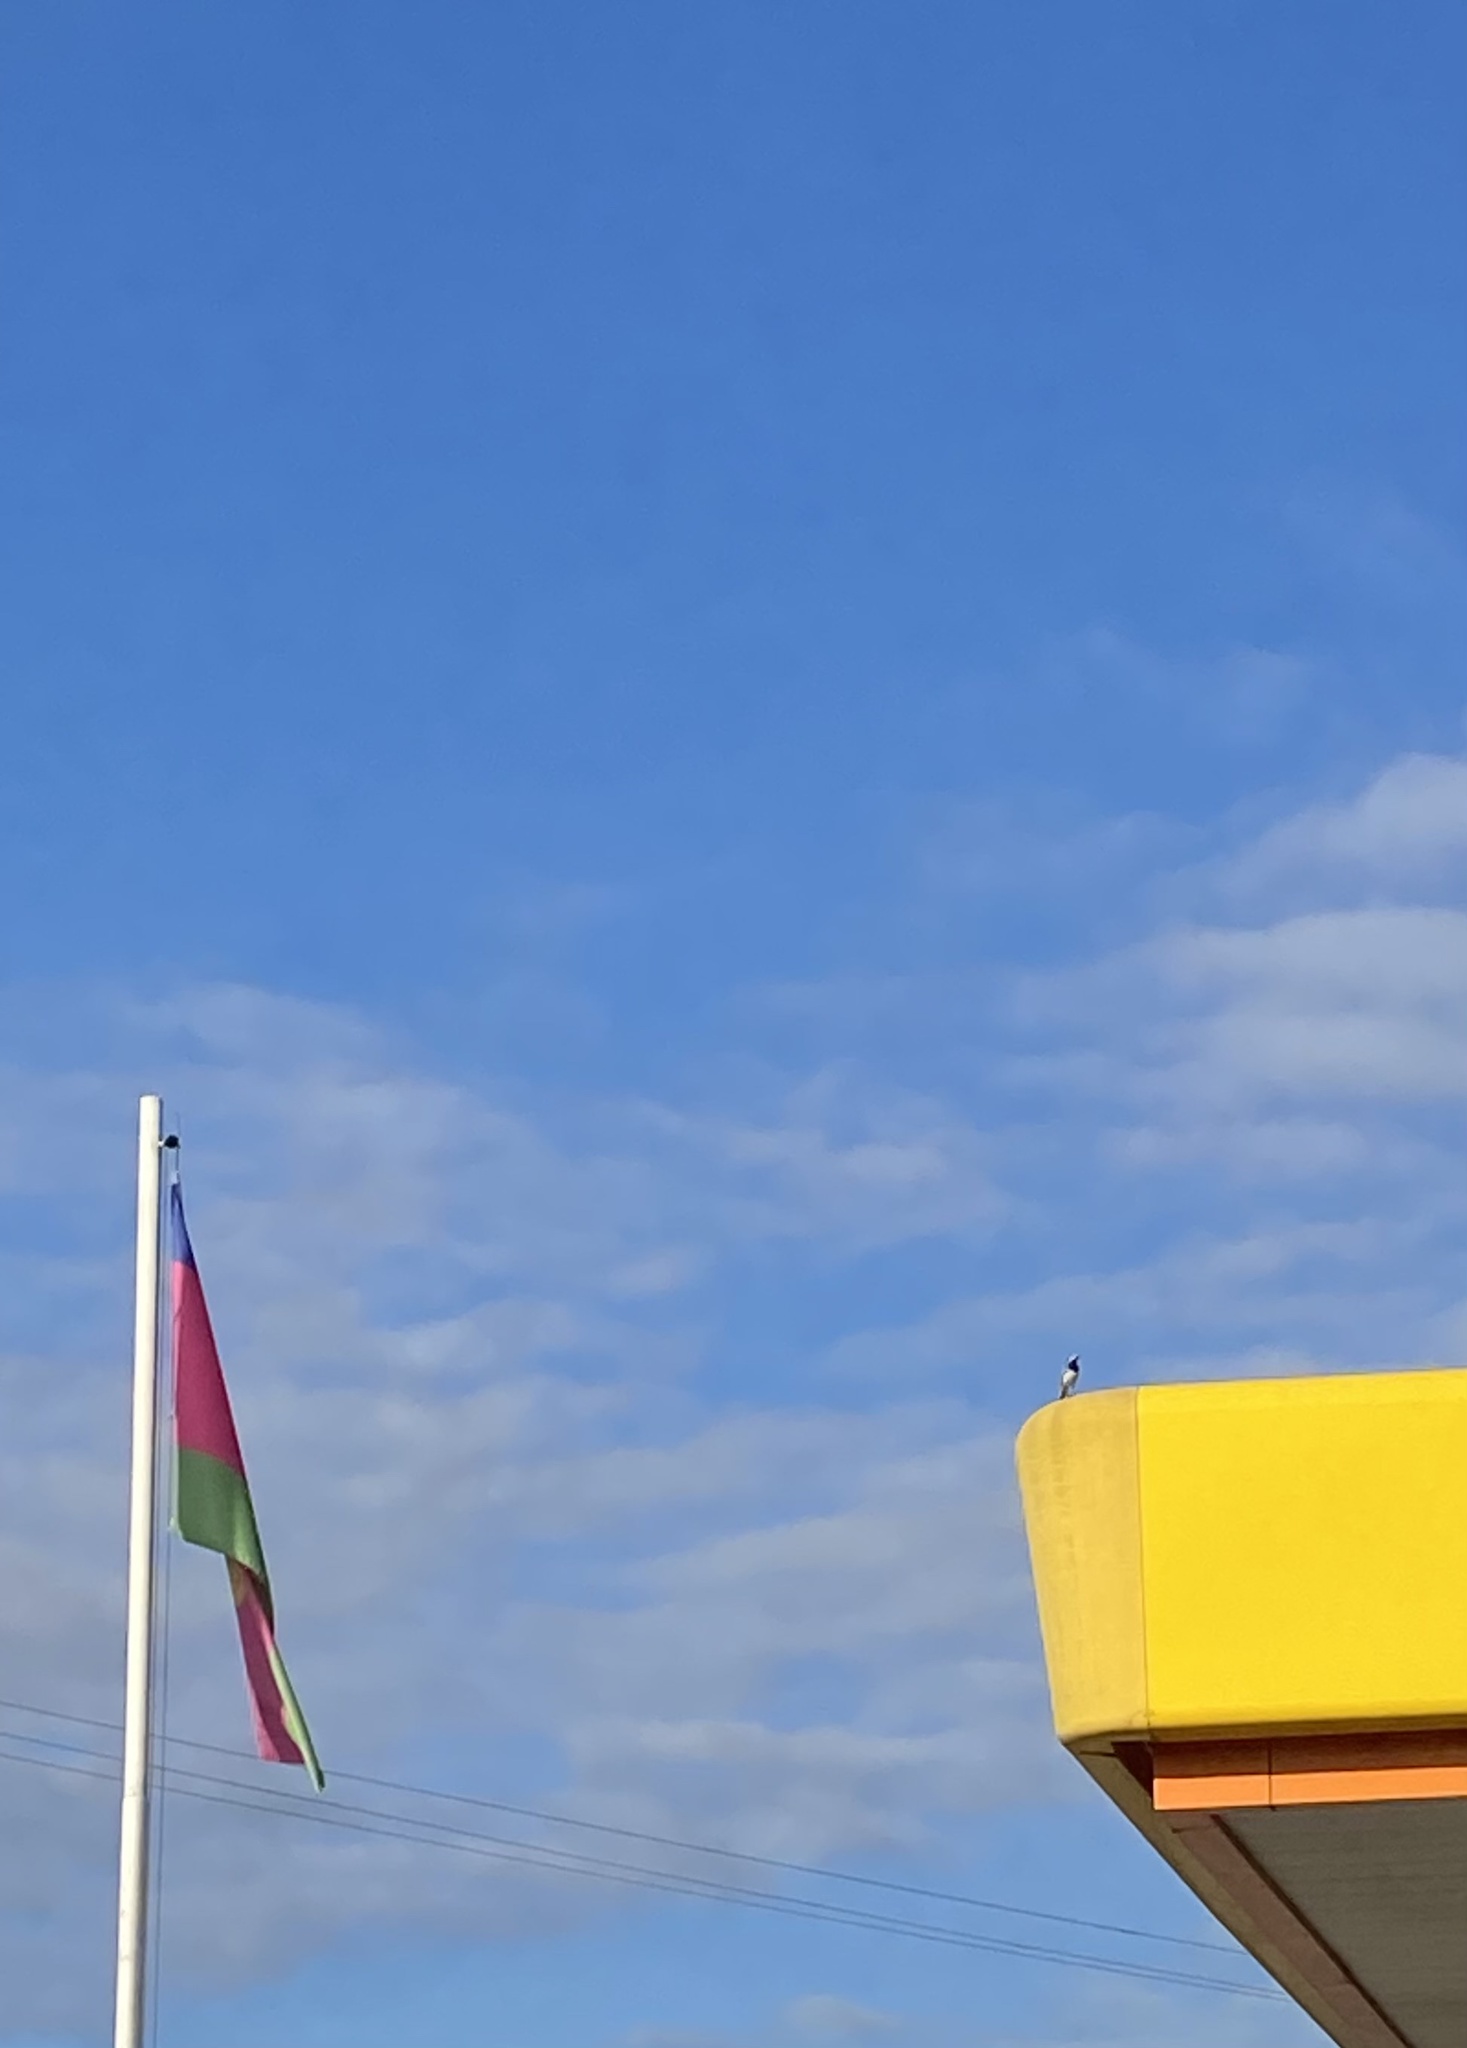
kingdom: Animalia
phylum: Chordata
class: Aves
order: Passeriformes
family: Motacillidae
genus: Motacilla
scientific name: Motacilla alba
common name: White wagtail
